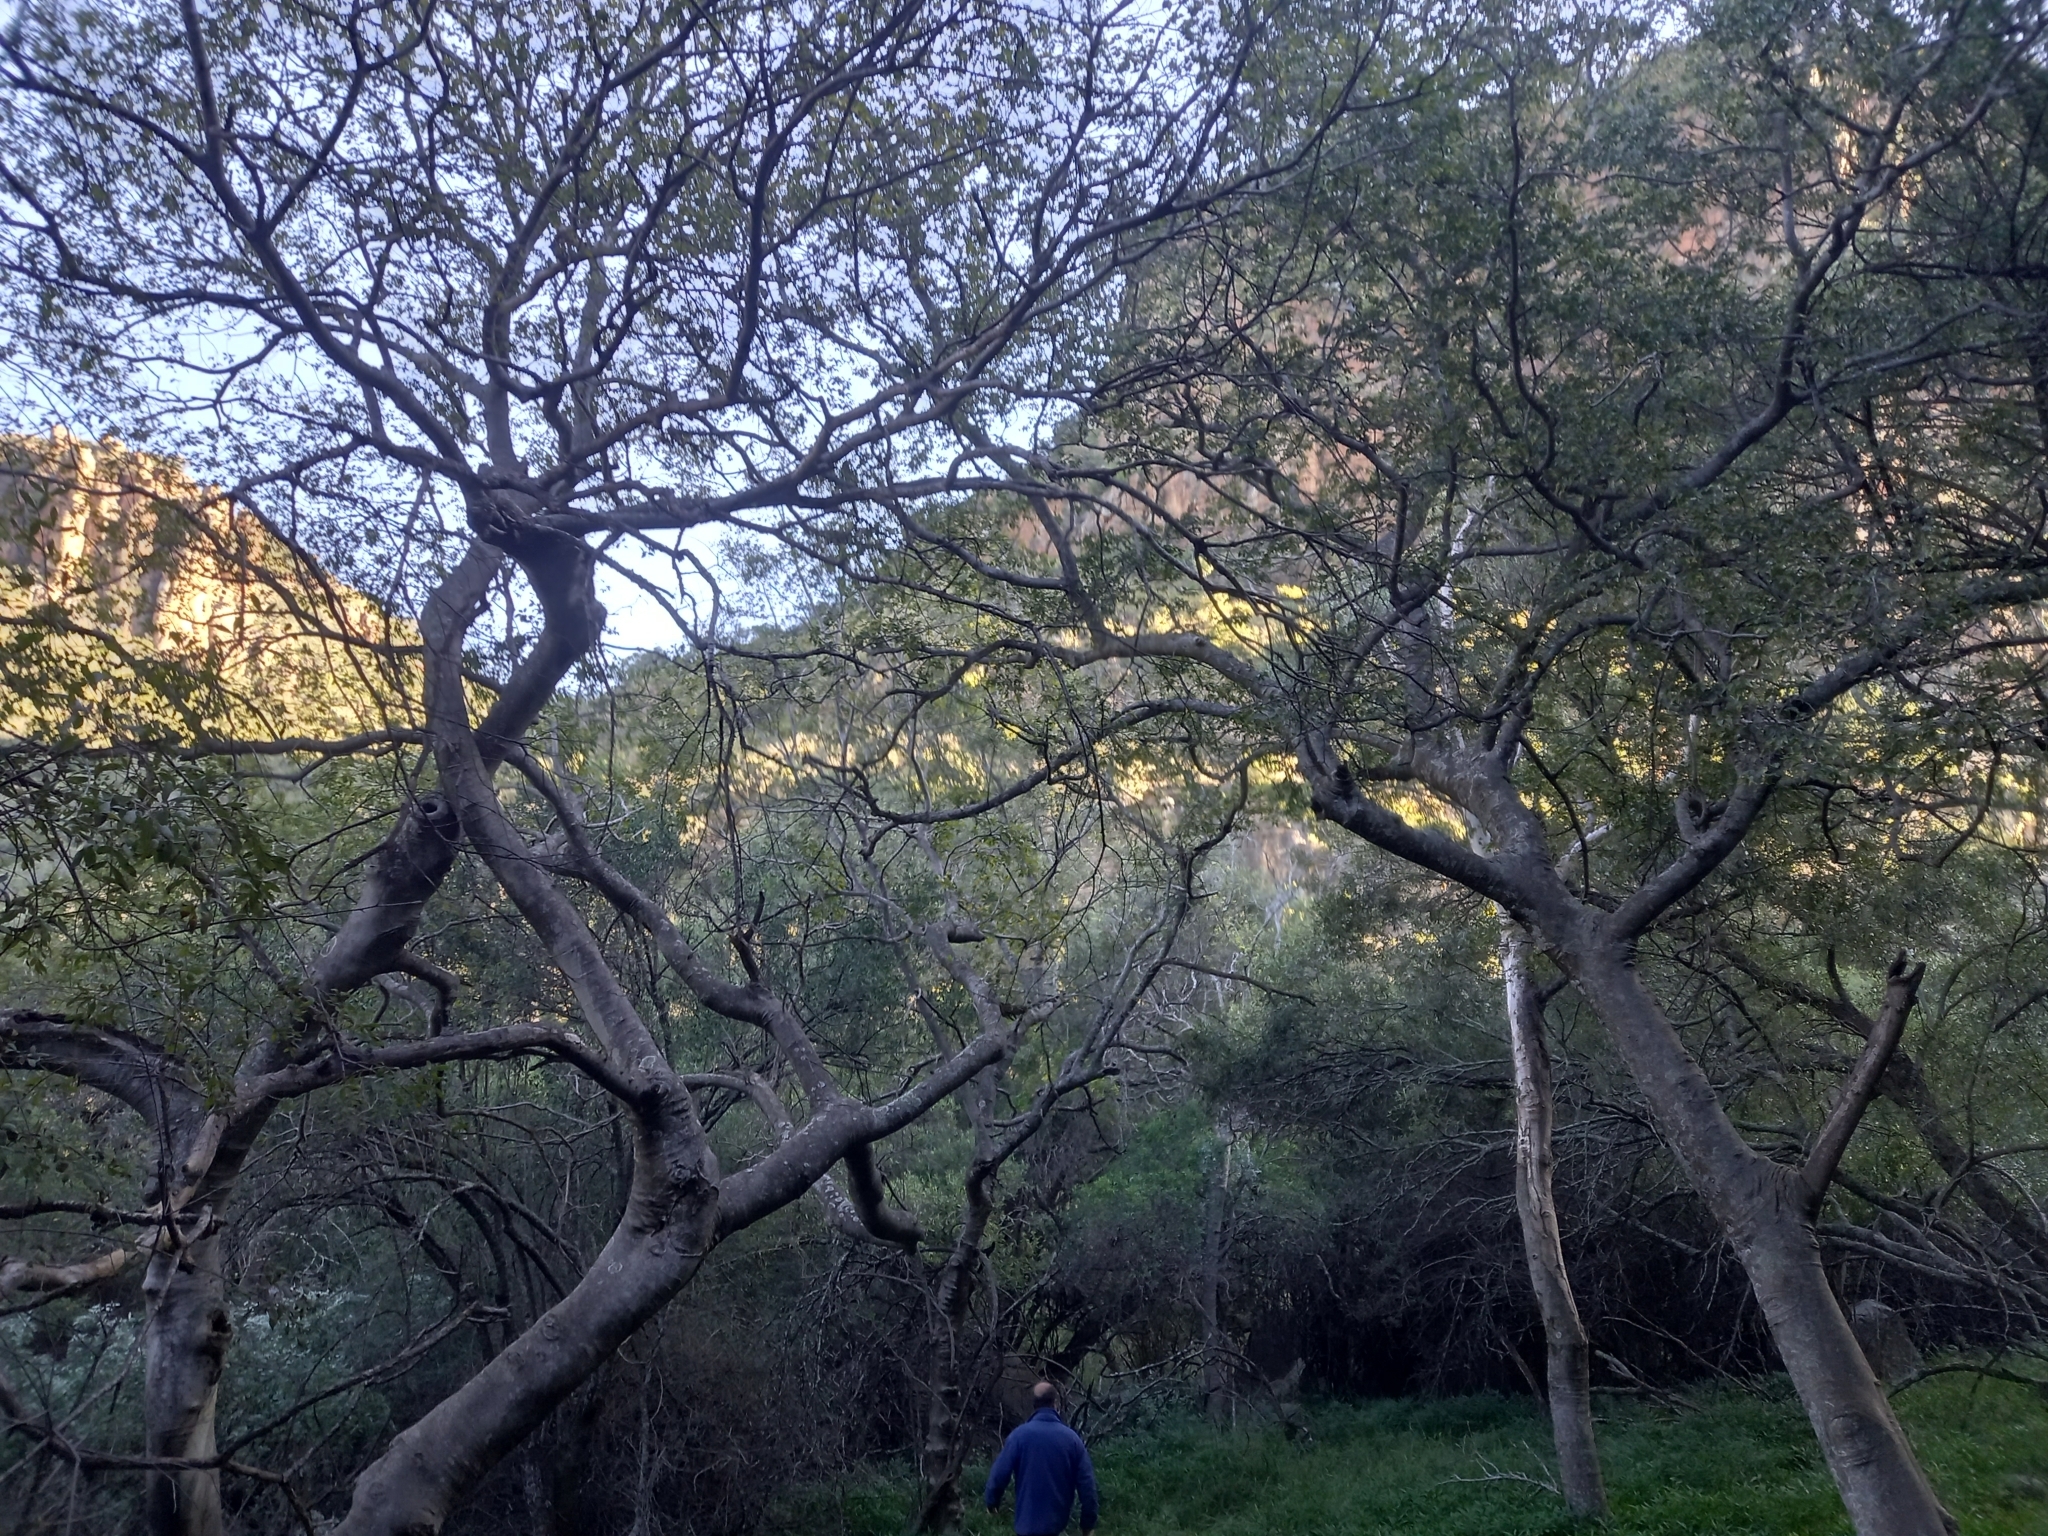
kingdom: Plantae
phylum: Tracheophyta
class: Magnoliopsida
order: Rosales
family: Cannabaceae
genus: Celtis
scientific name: Celtis africana
